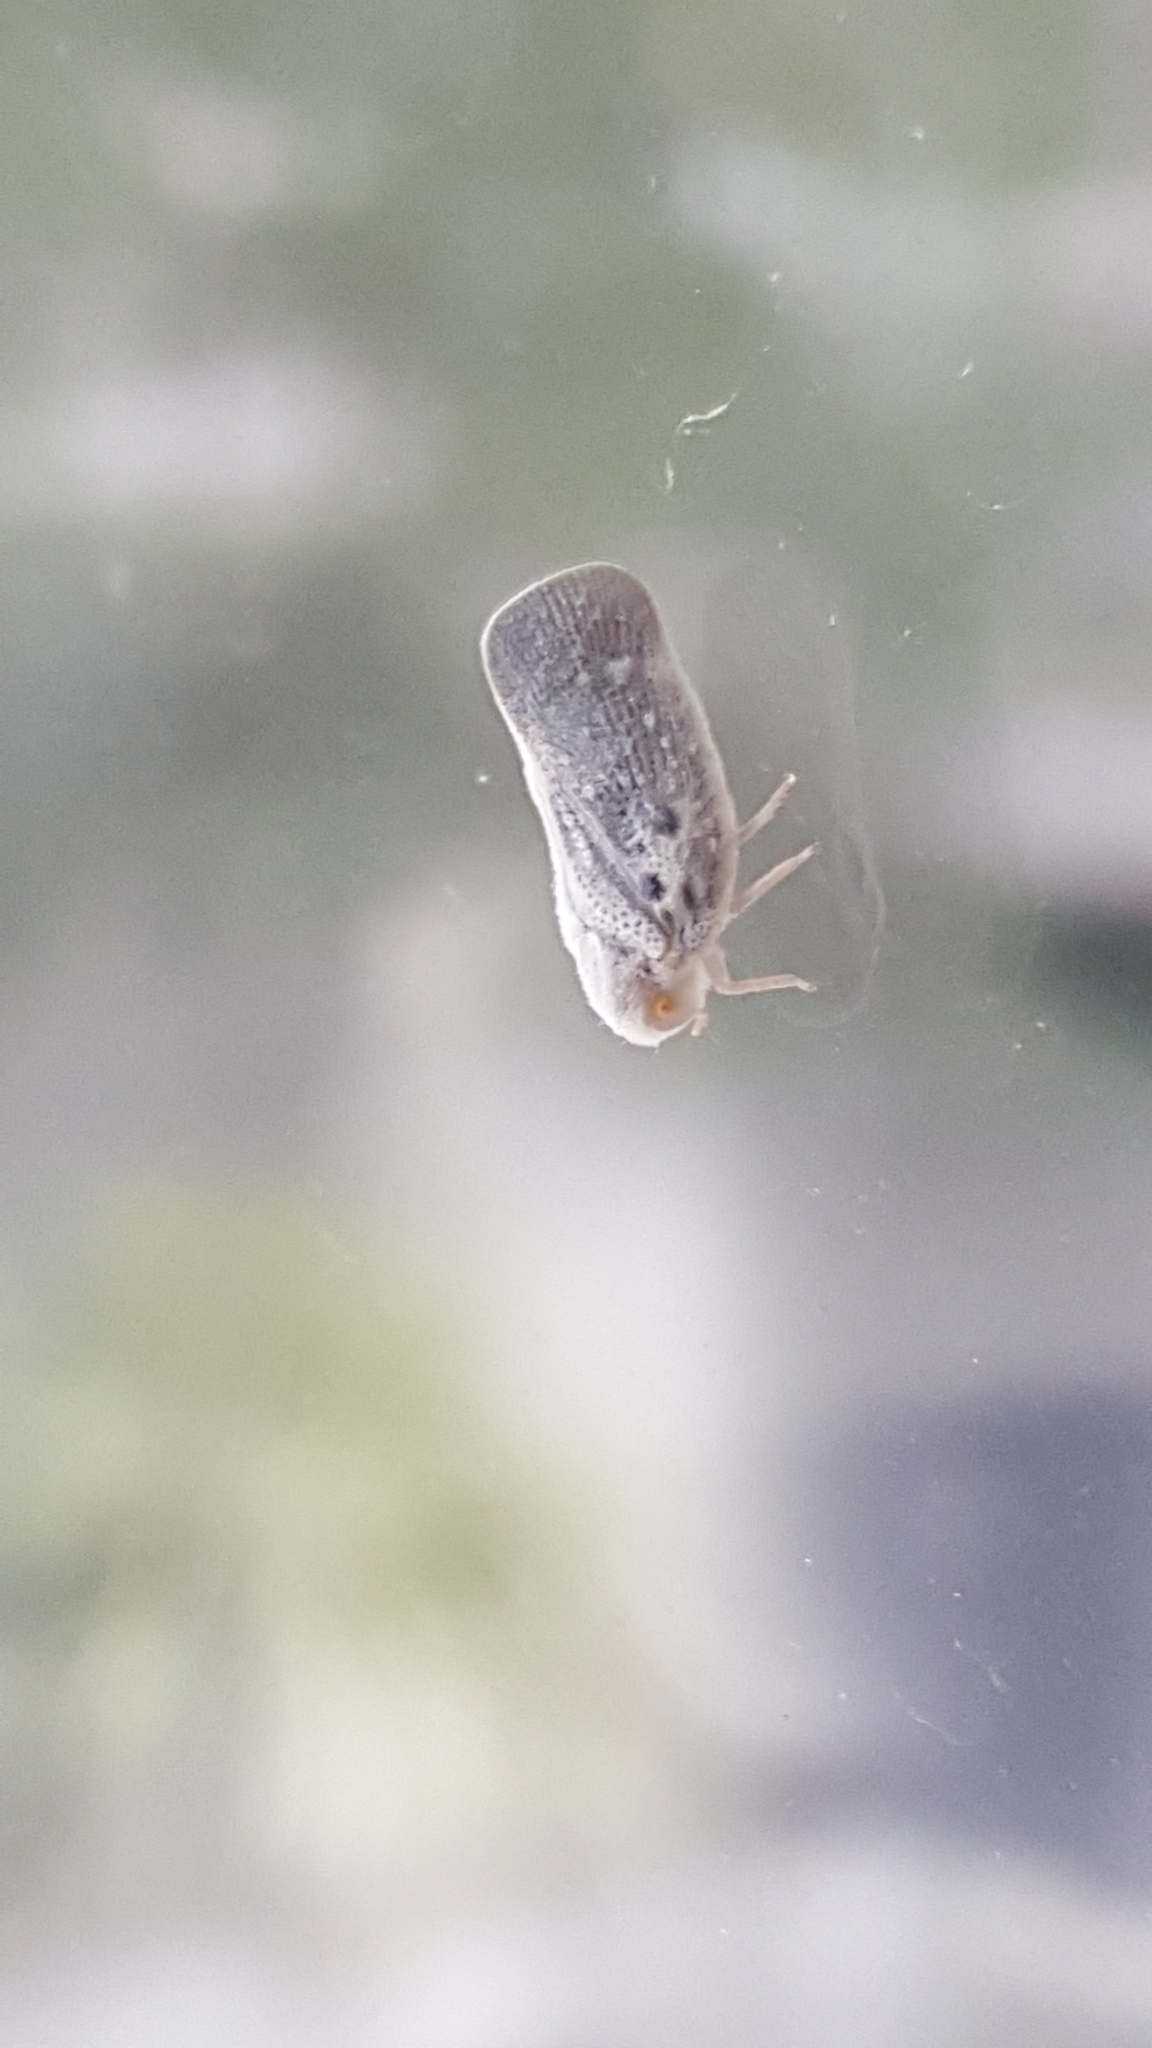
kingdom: Animalia
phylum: Arthropoda
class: Insecta
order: Hemiptera
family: Flatidae
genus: Metcalfa
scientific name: Metcalfa pruinosa
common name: Citrus flatid planthopper
